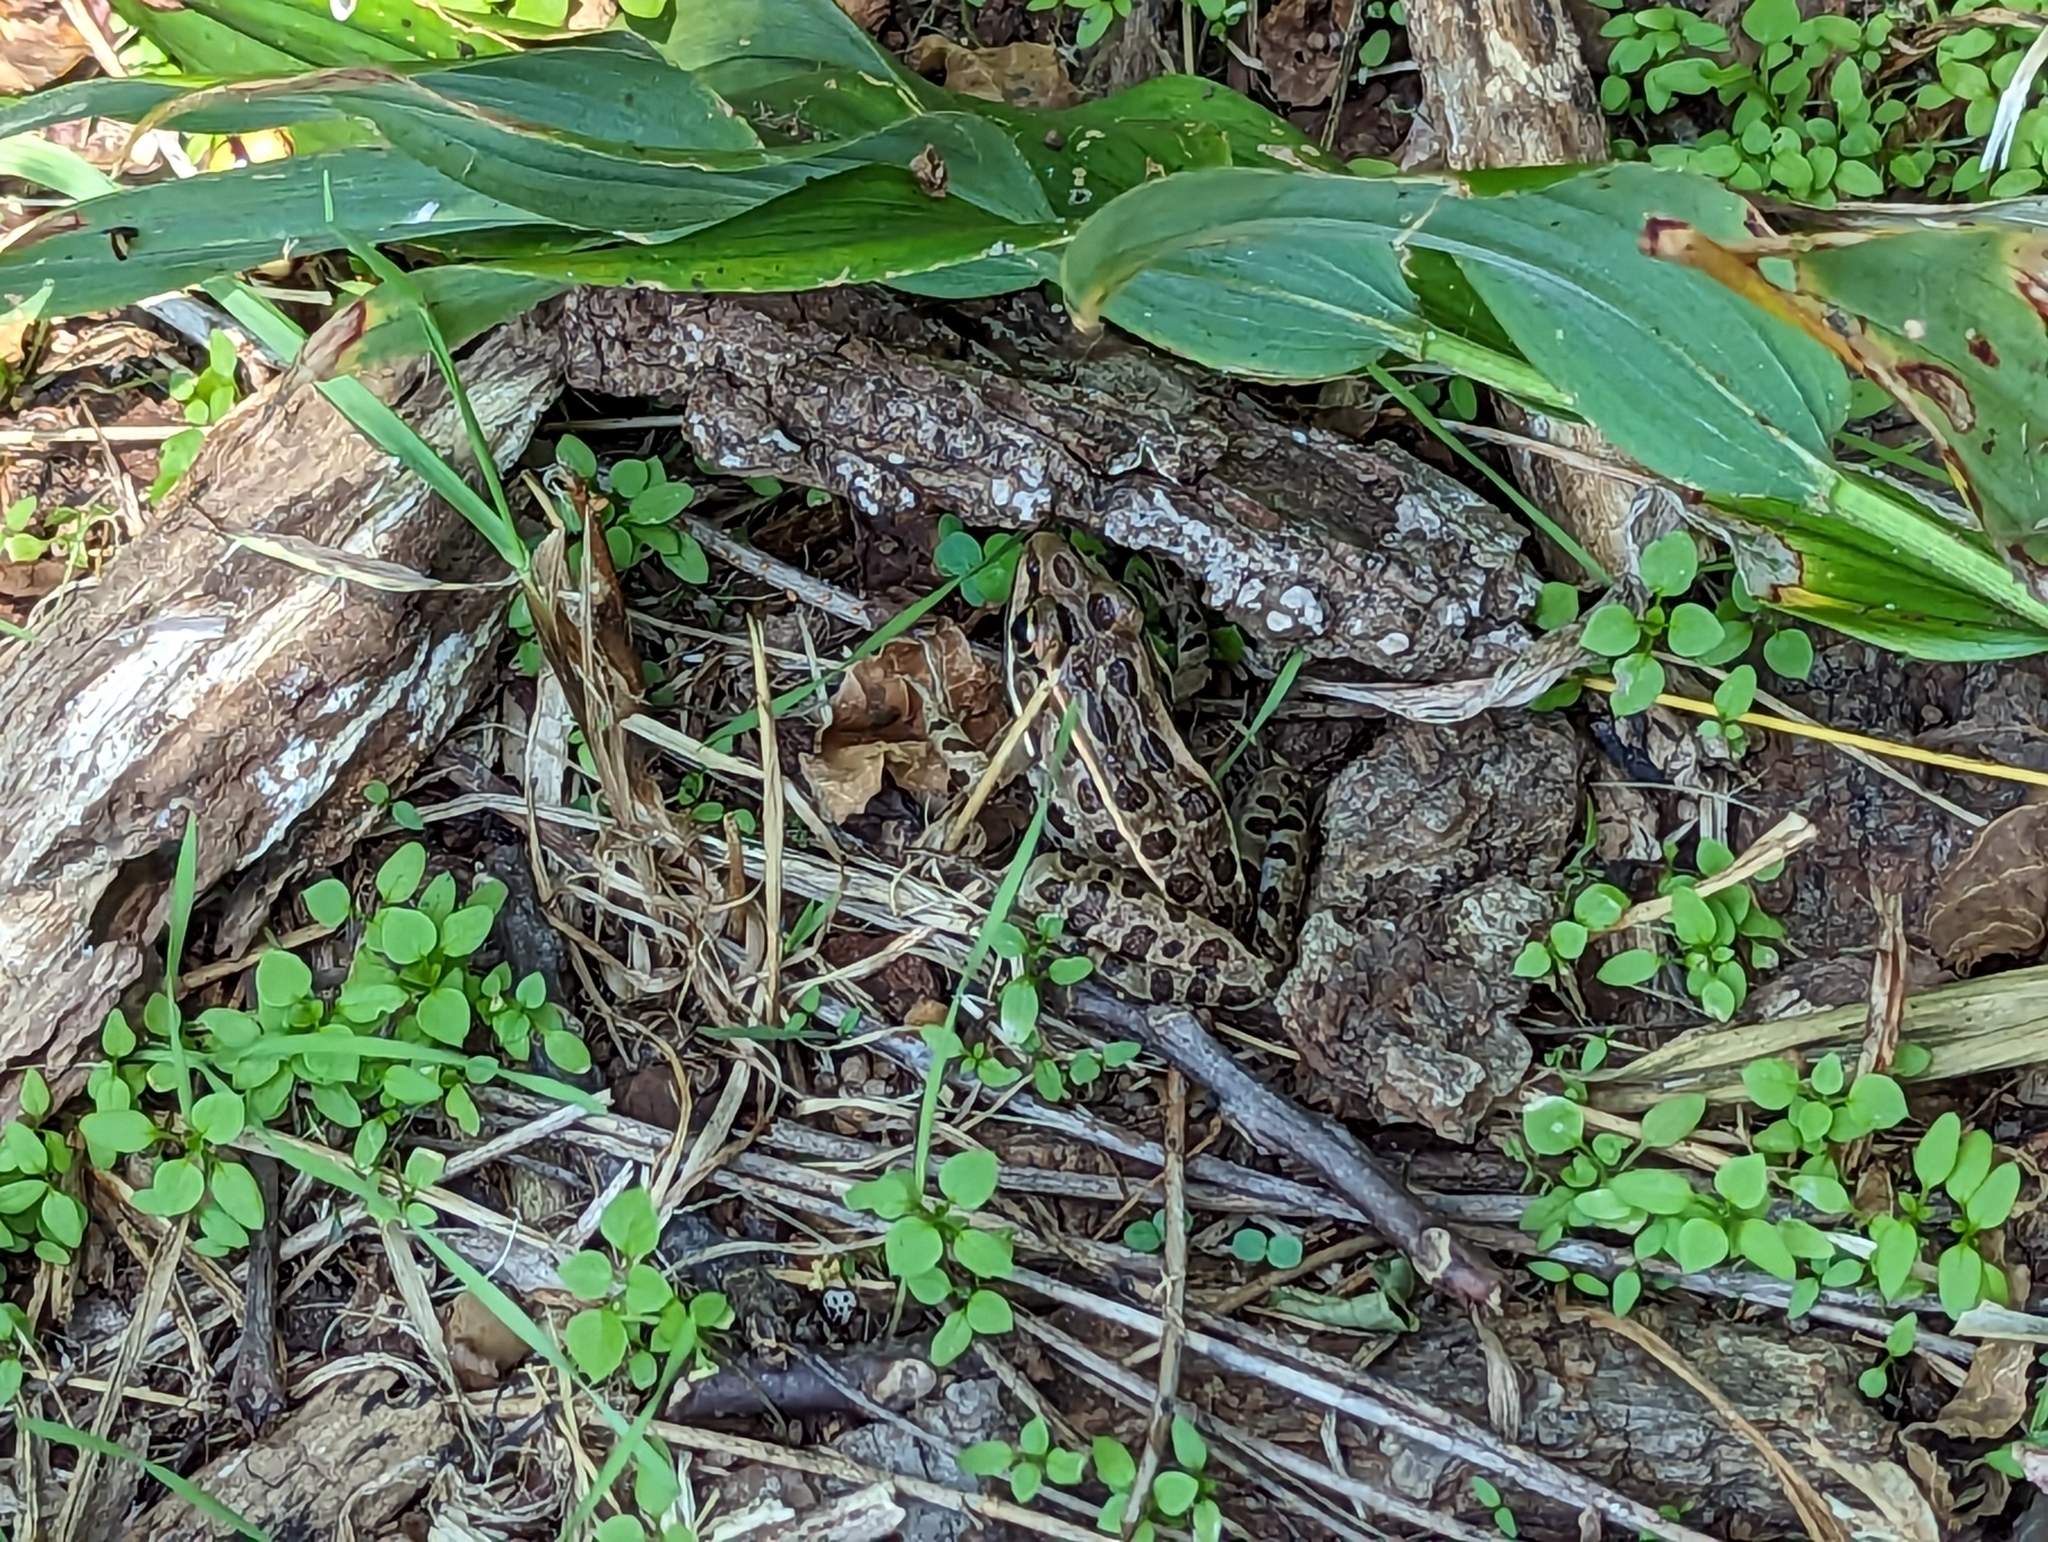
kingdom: Animalia
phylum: Chordata
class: Amphibia
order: Anura
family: Ranidae
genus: Lithobates
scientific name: Lithobates pipiens
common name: Northern leopard frog
